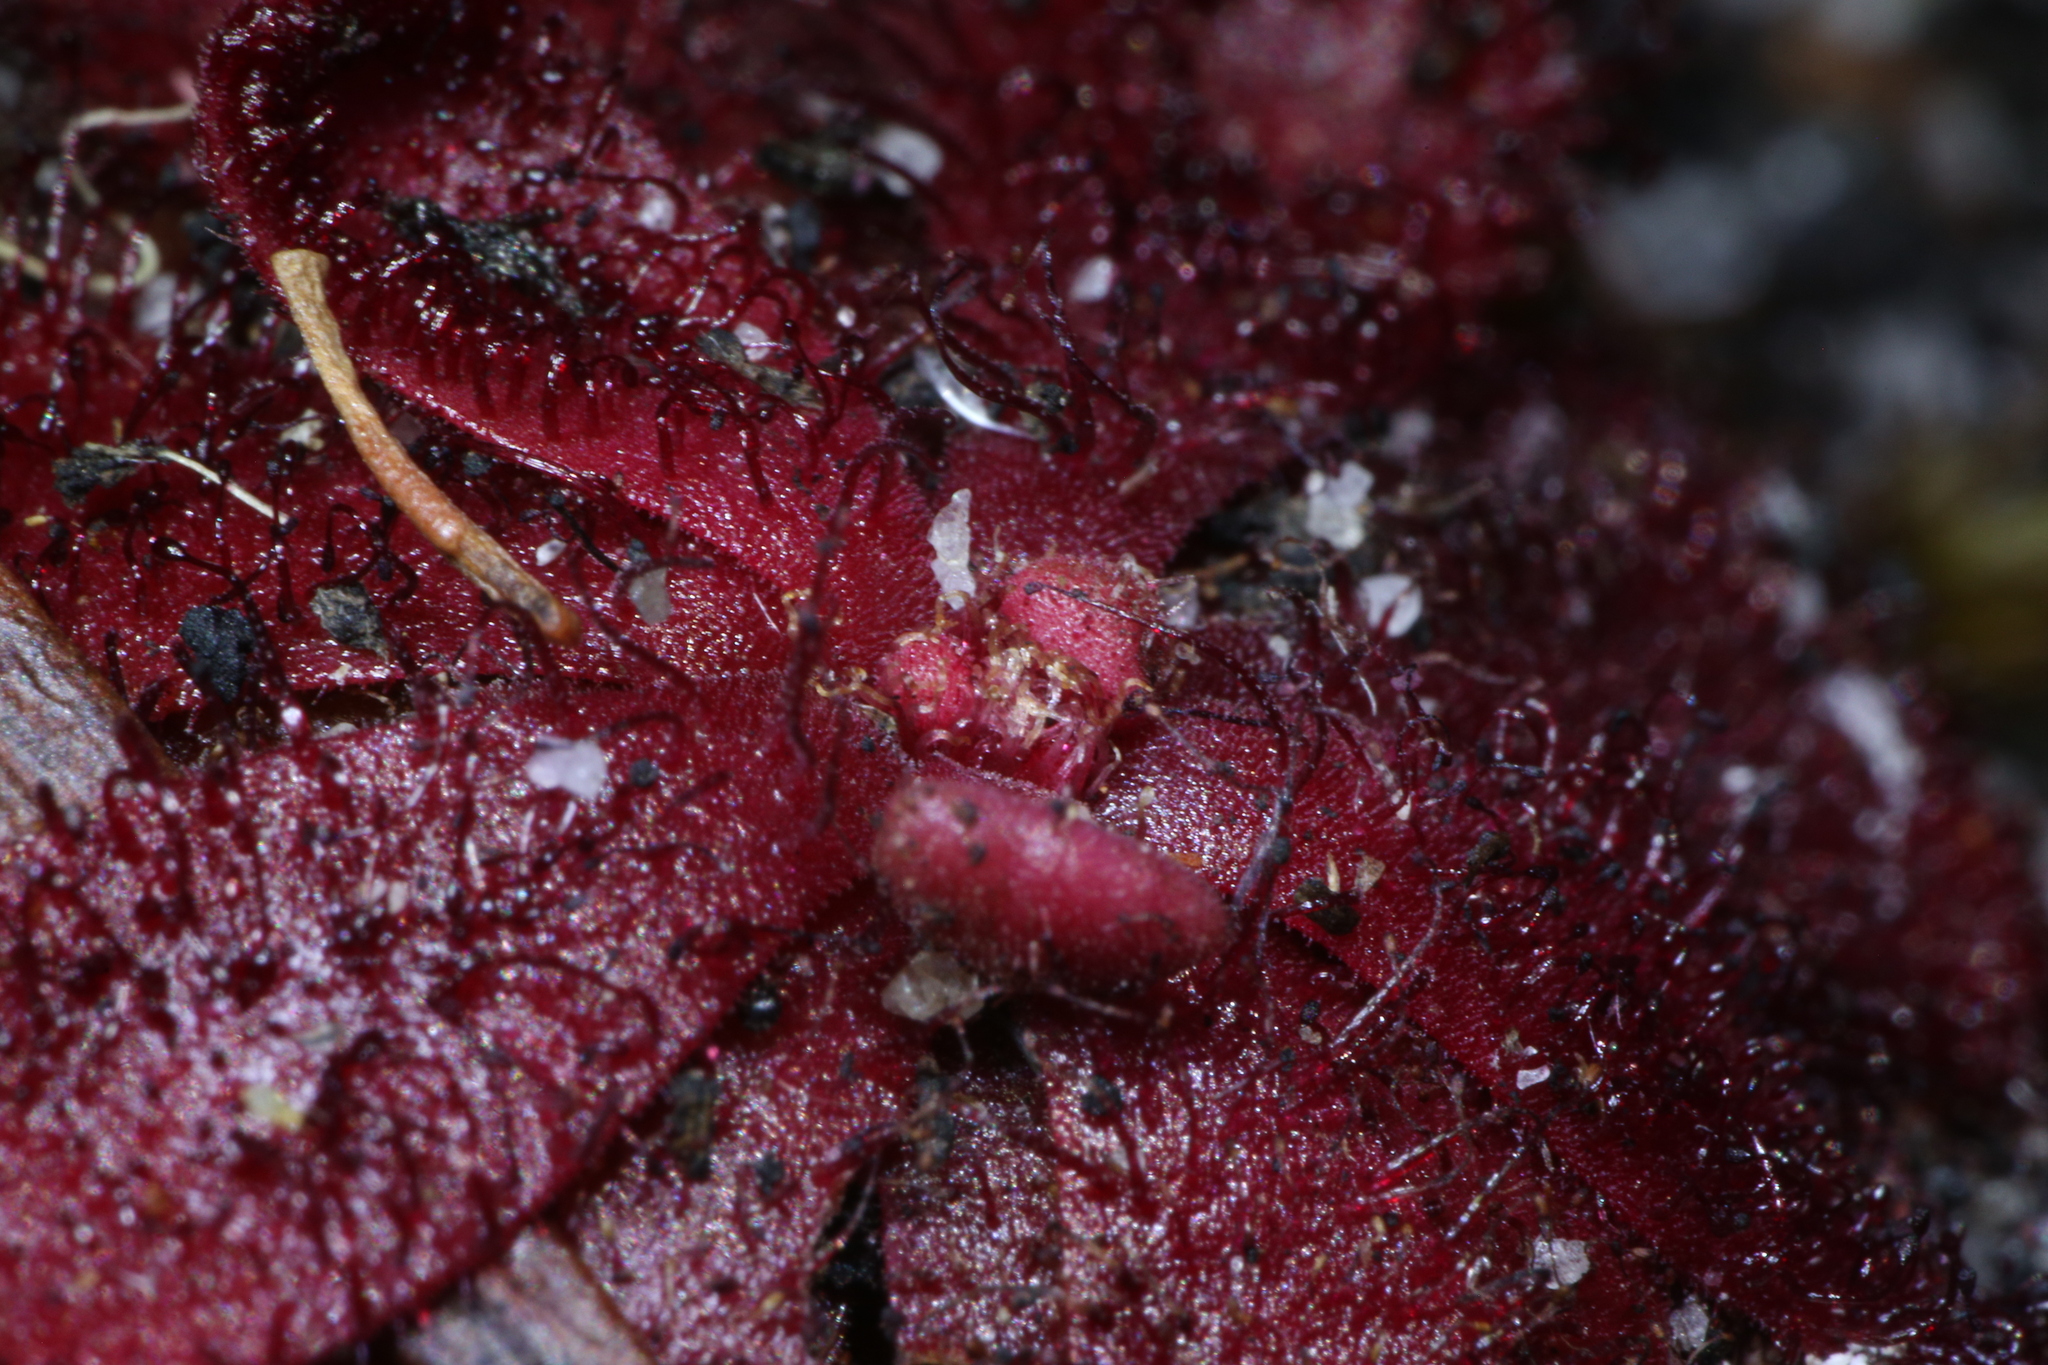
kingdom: Plantae
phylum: Tracheophyta
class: Magnoliopsida
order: Caryophyllales
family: Droseraceae
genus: Drosera
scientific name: Drosera hamiltonii
